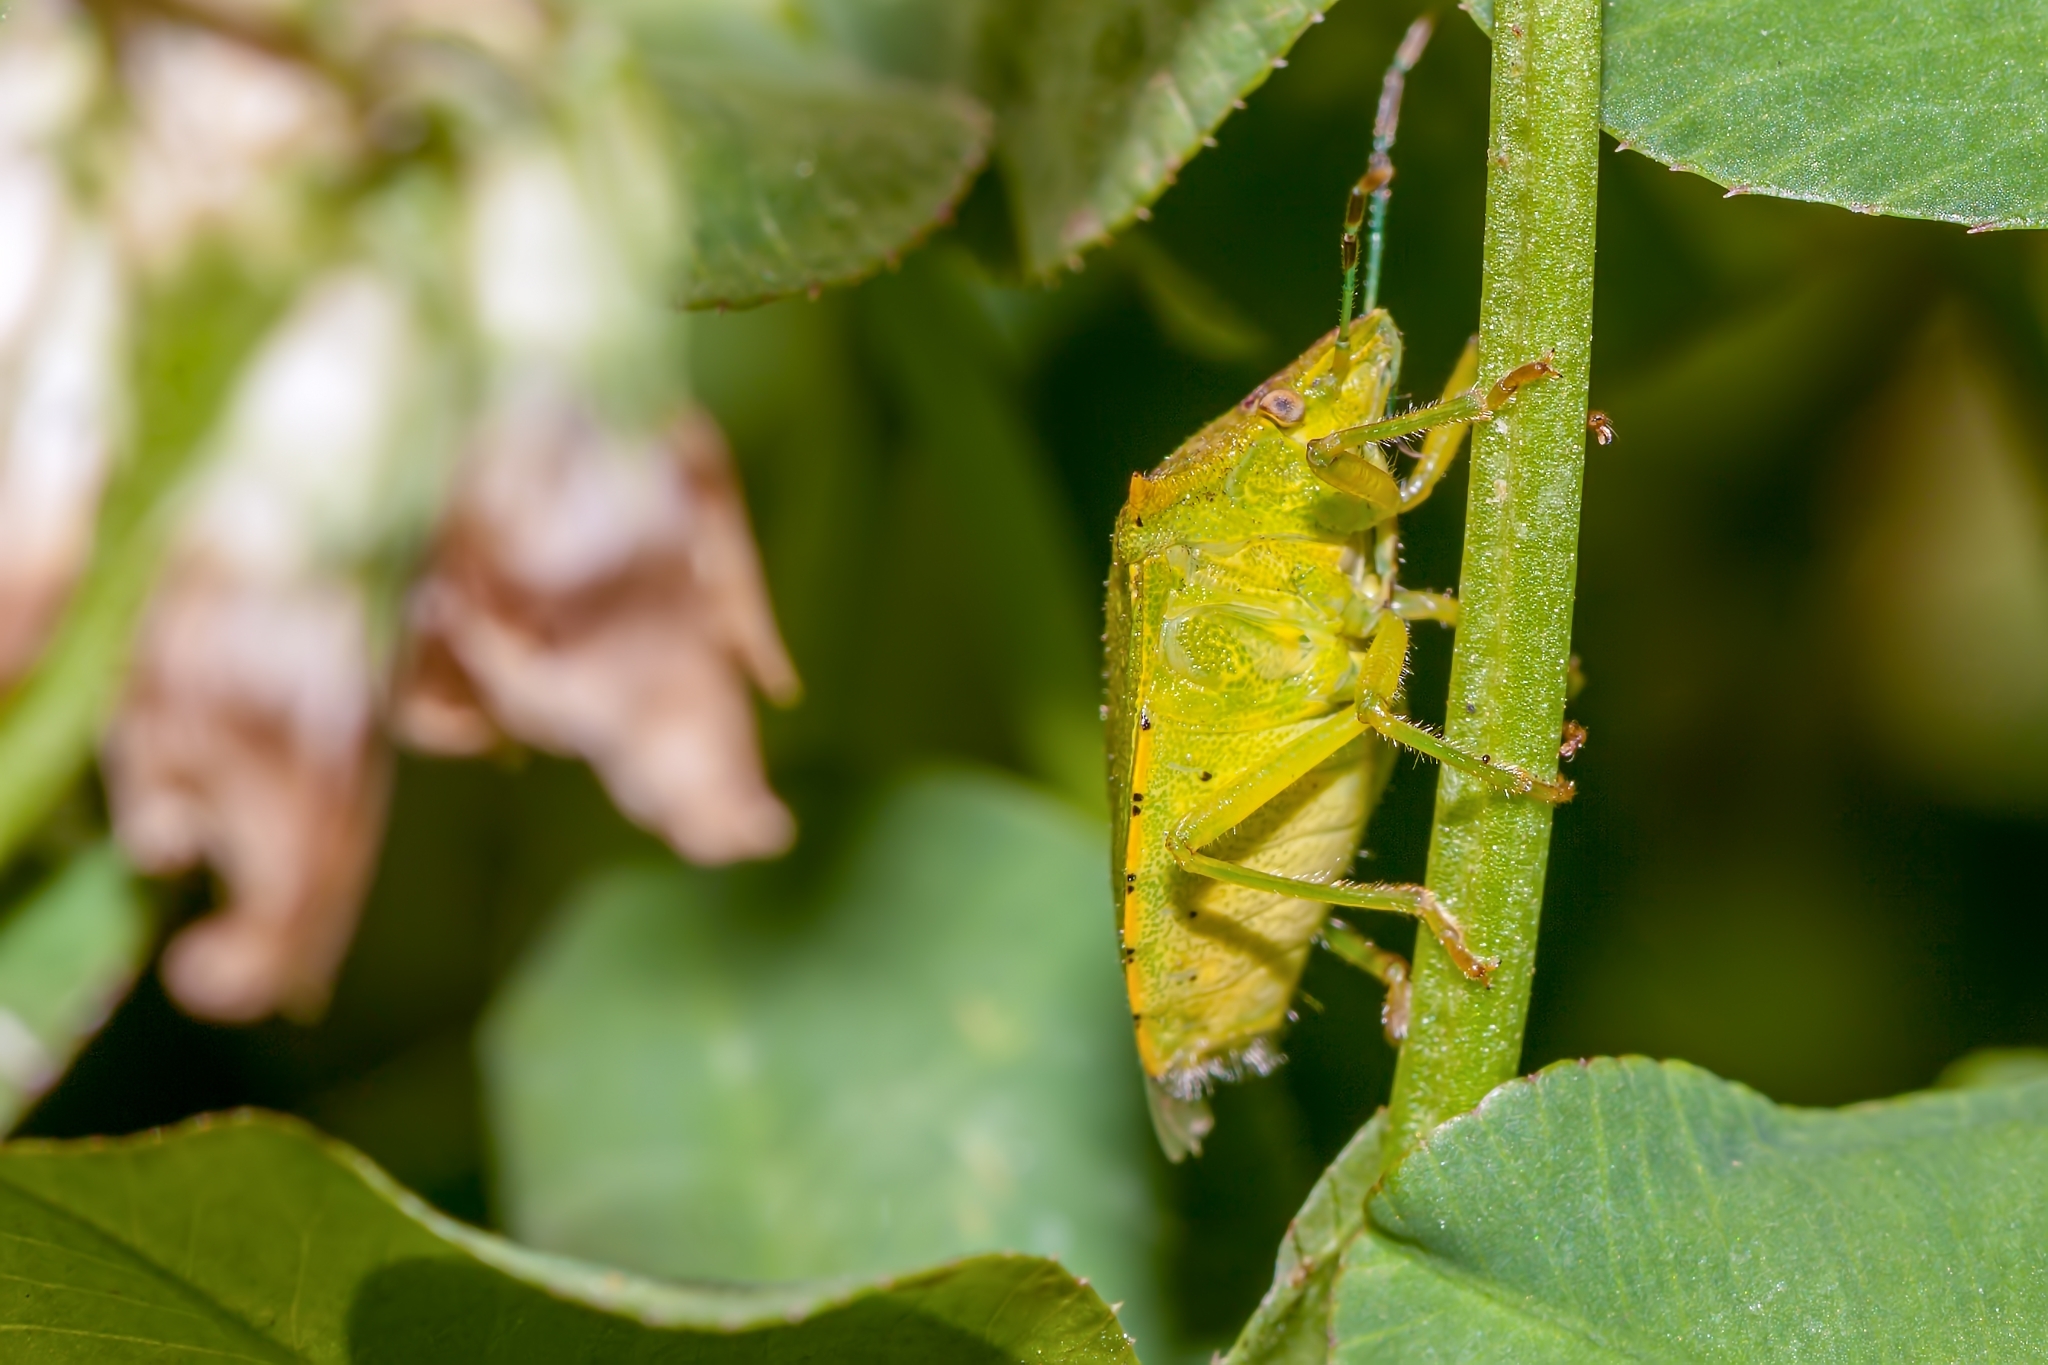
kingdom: Animalia
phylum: Arthropoda
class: Insecta
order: Hemiptera
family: Pentatomidae
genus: Chinavia
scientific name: Chinavia hilaris
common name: Green stink bug
